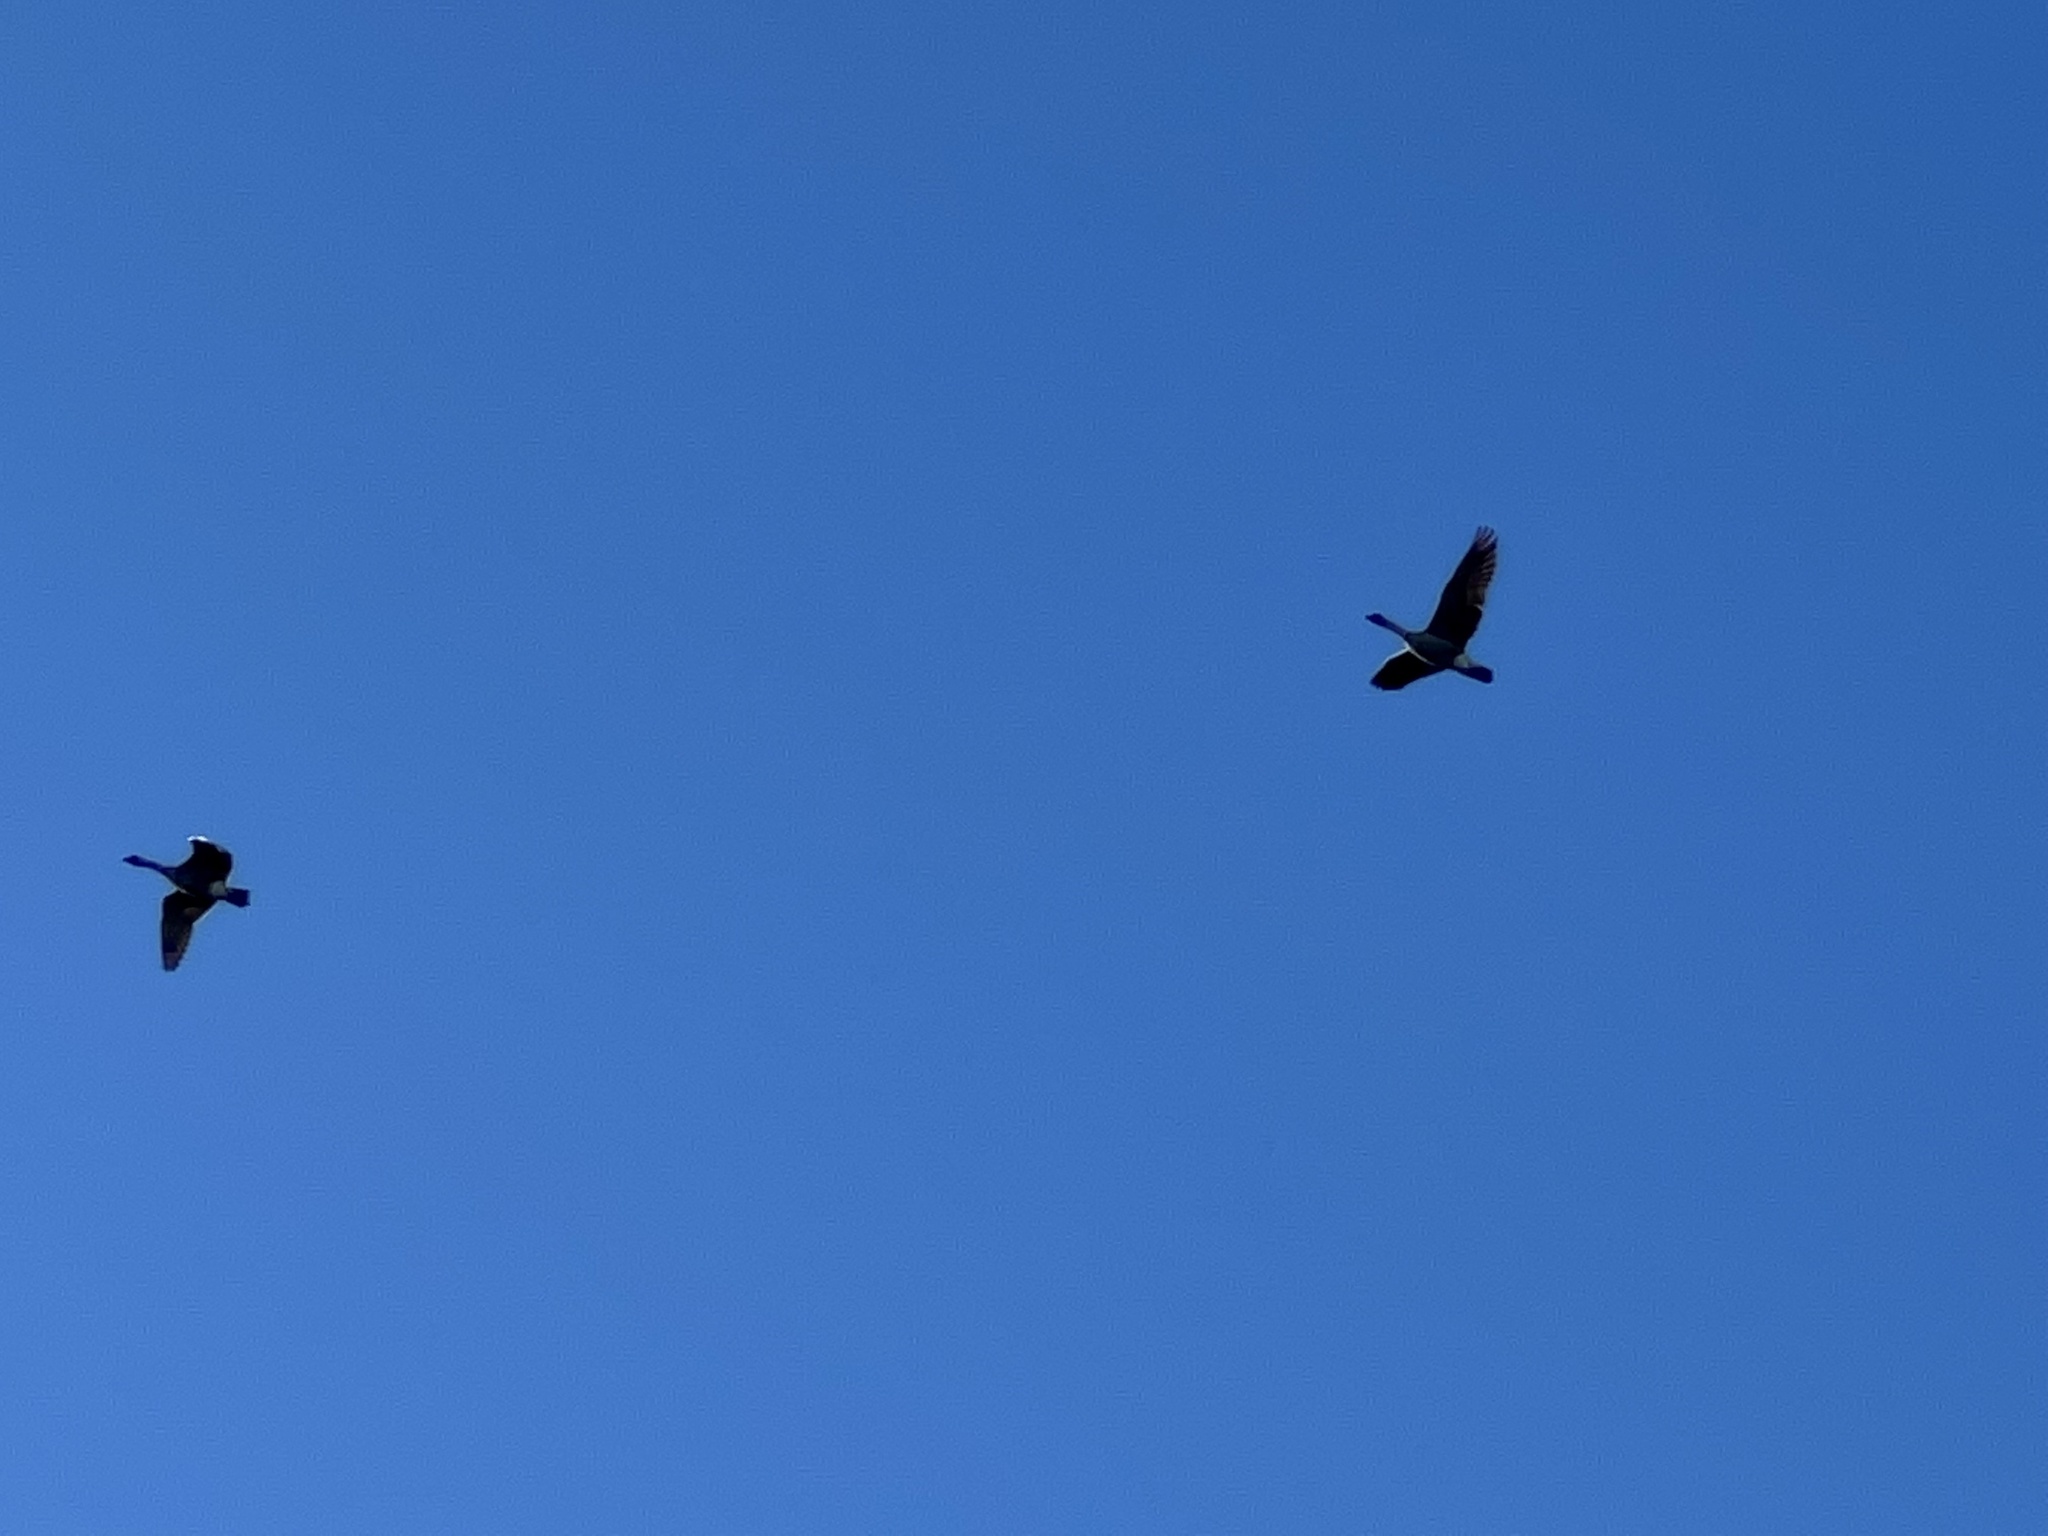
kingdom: Animalia
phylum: Chordata
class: Aves
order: Anseriformes
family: Anatidae
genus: Branta
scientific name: Branta sandvicensis
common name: Nene
